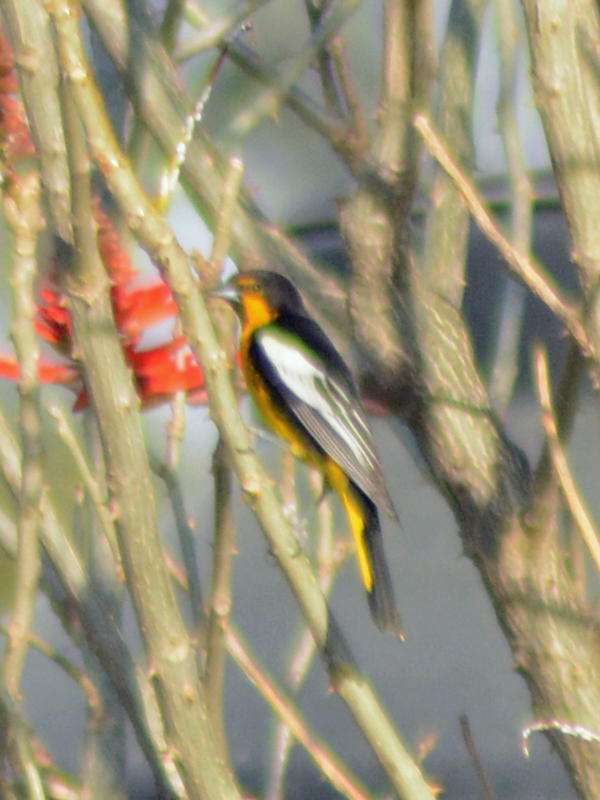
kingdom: Animalia
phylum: Chordata
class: Aves
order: Passeriformes
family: Icteridae
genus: Icterus
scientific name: Icterus abeillei
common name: Black-backed oriole
